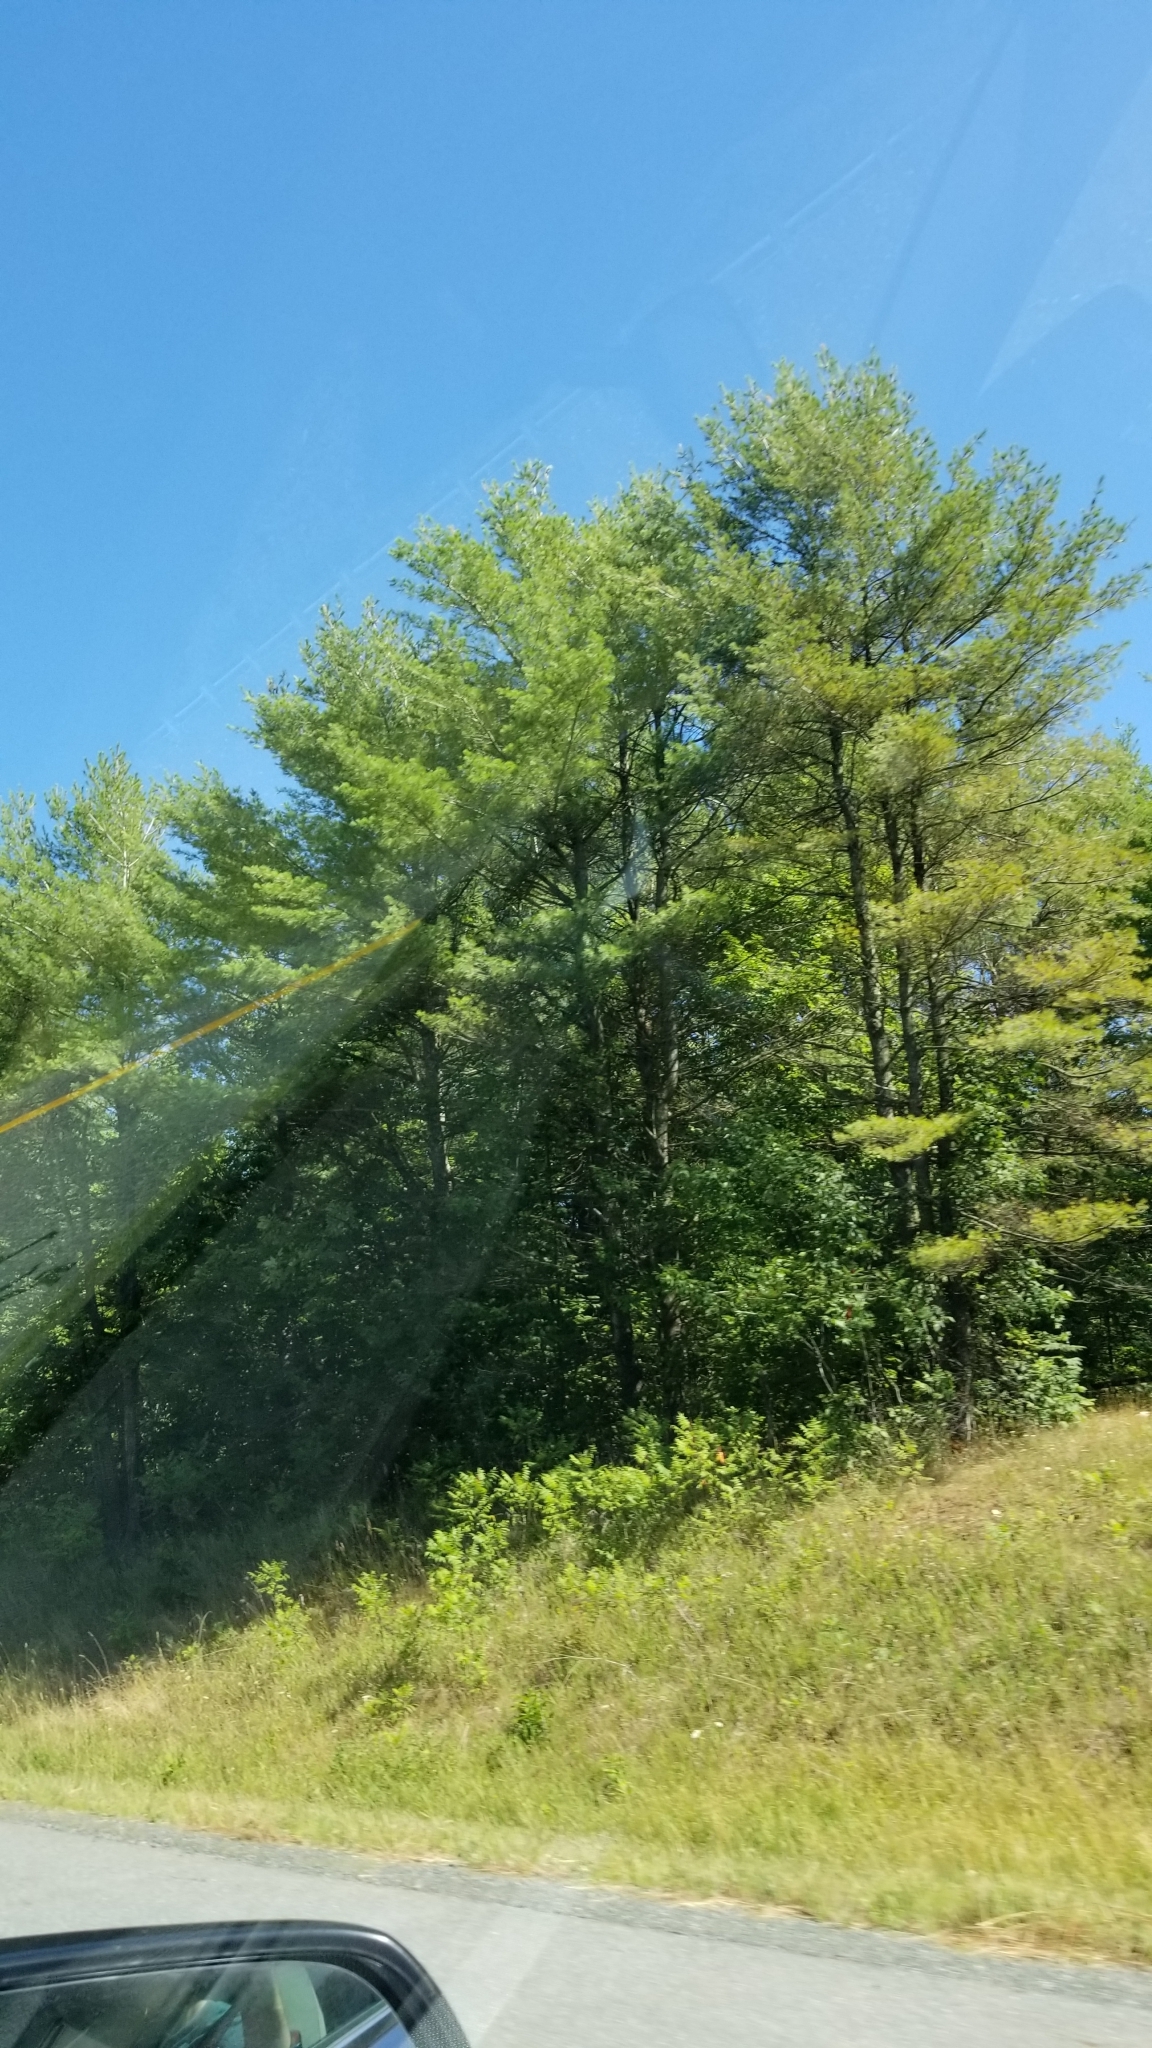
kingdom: Plantae
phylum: Tracheophyta
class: Pinopsida
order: Pinales
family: Pinaceae
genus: Pinus
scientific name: Pinus strobus
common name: Weymouth pine
